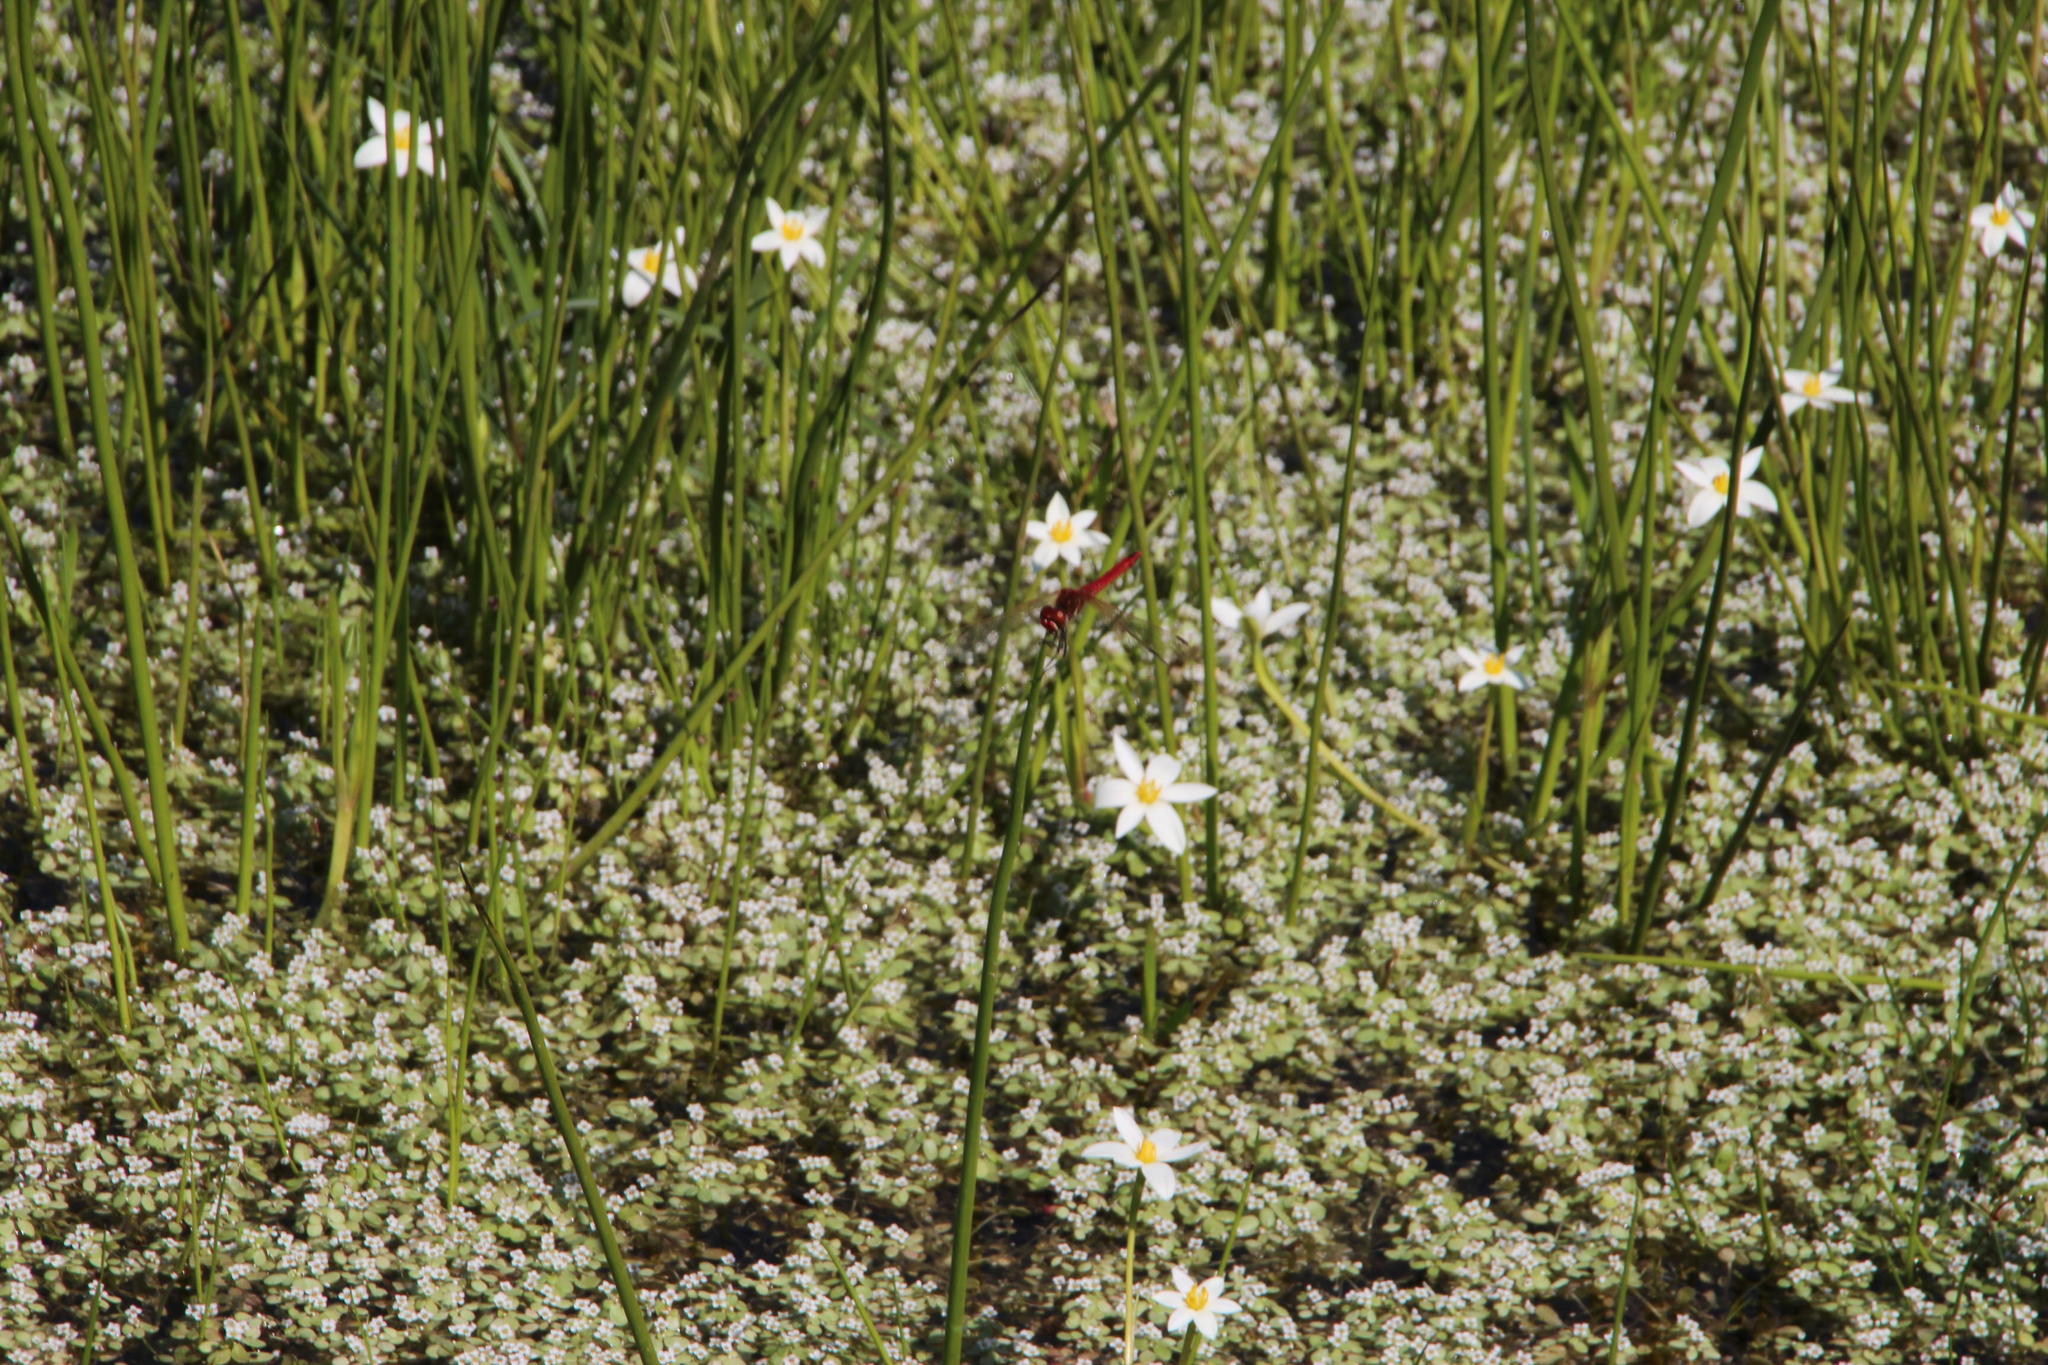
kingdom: Plantae
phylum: Tracheophyta
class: Liliopsida
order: Asparagales
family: Hypoxidaceae
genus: Pauridia
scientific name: Pauridia aquatica
